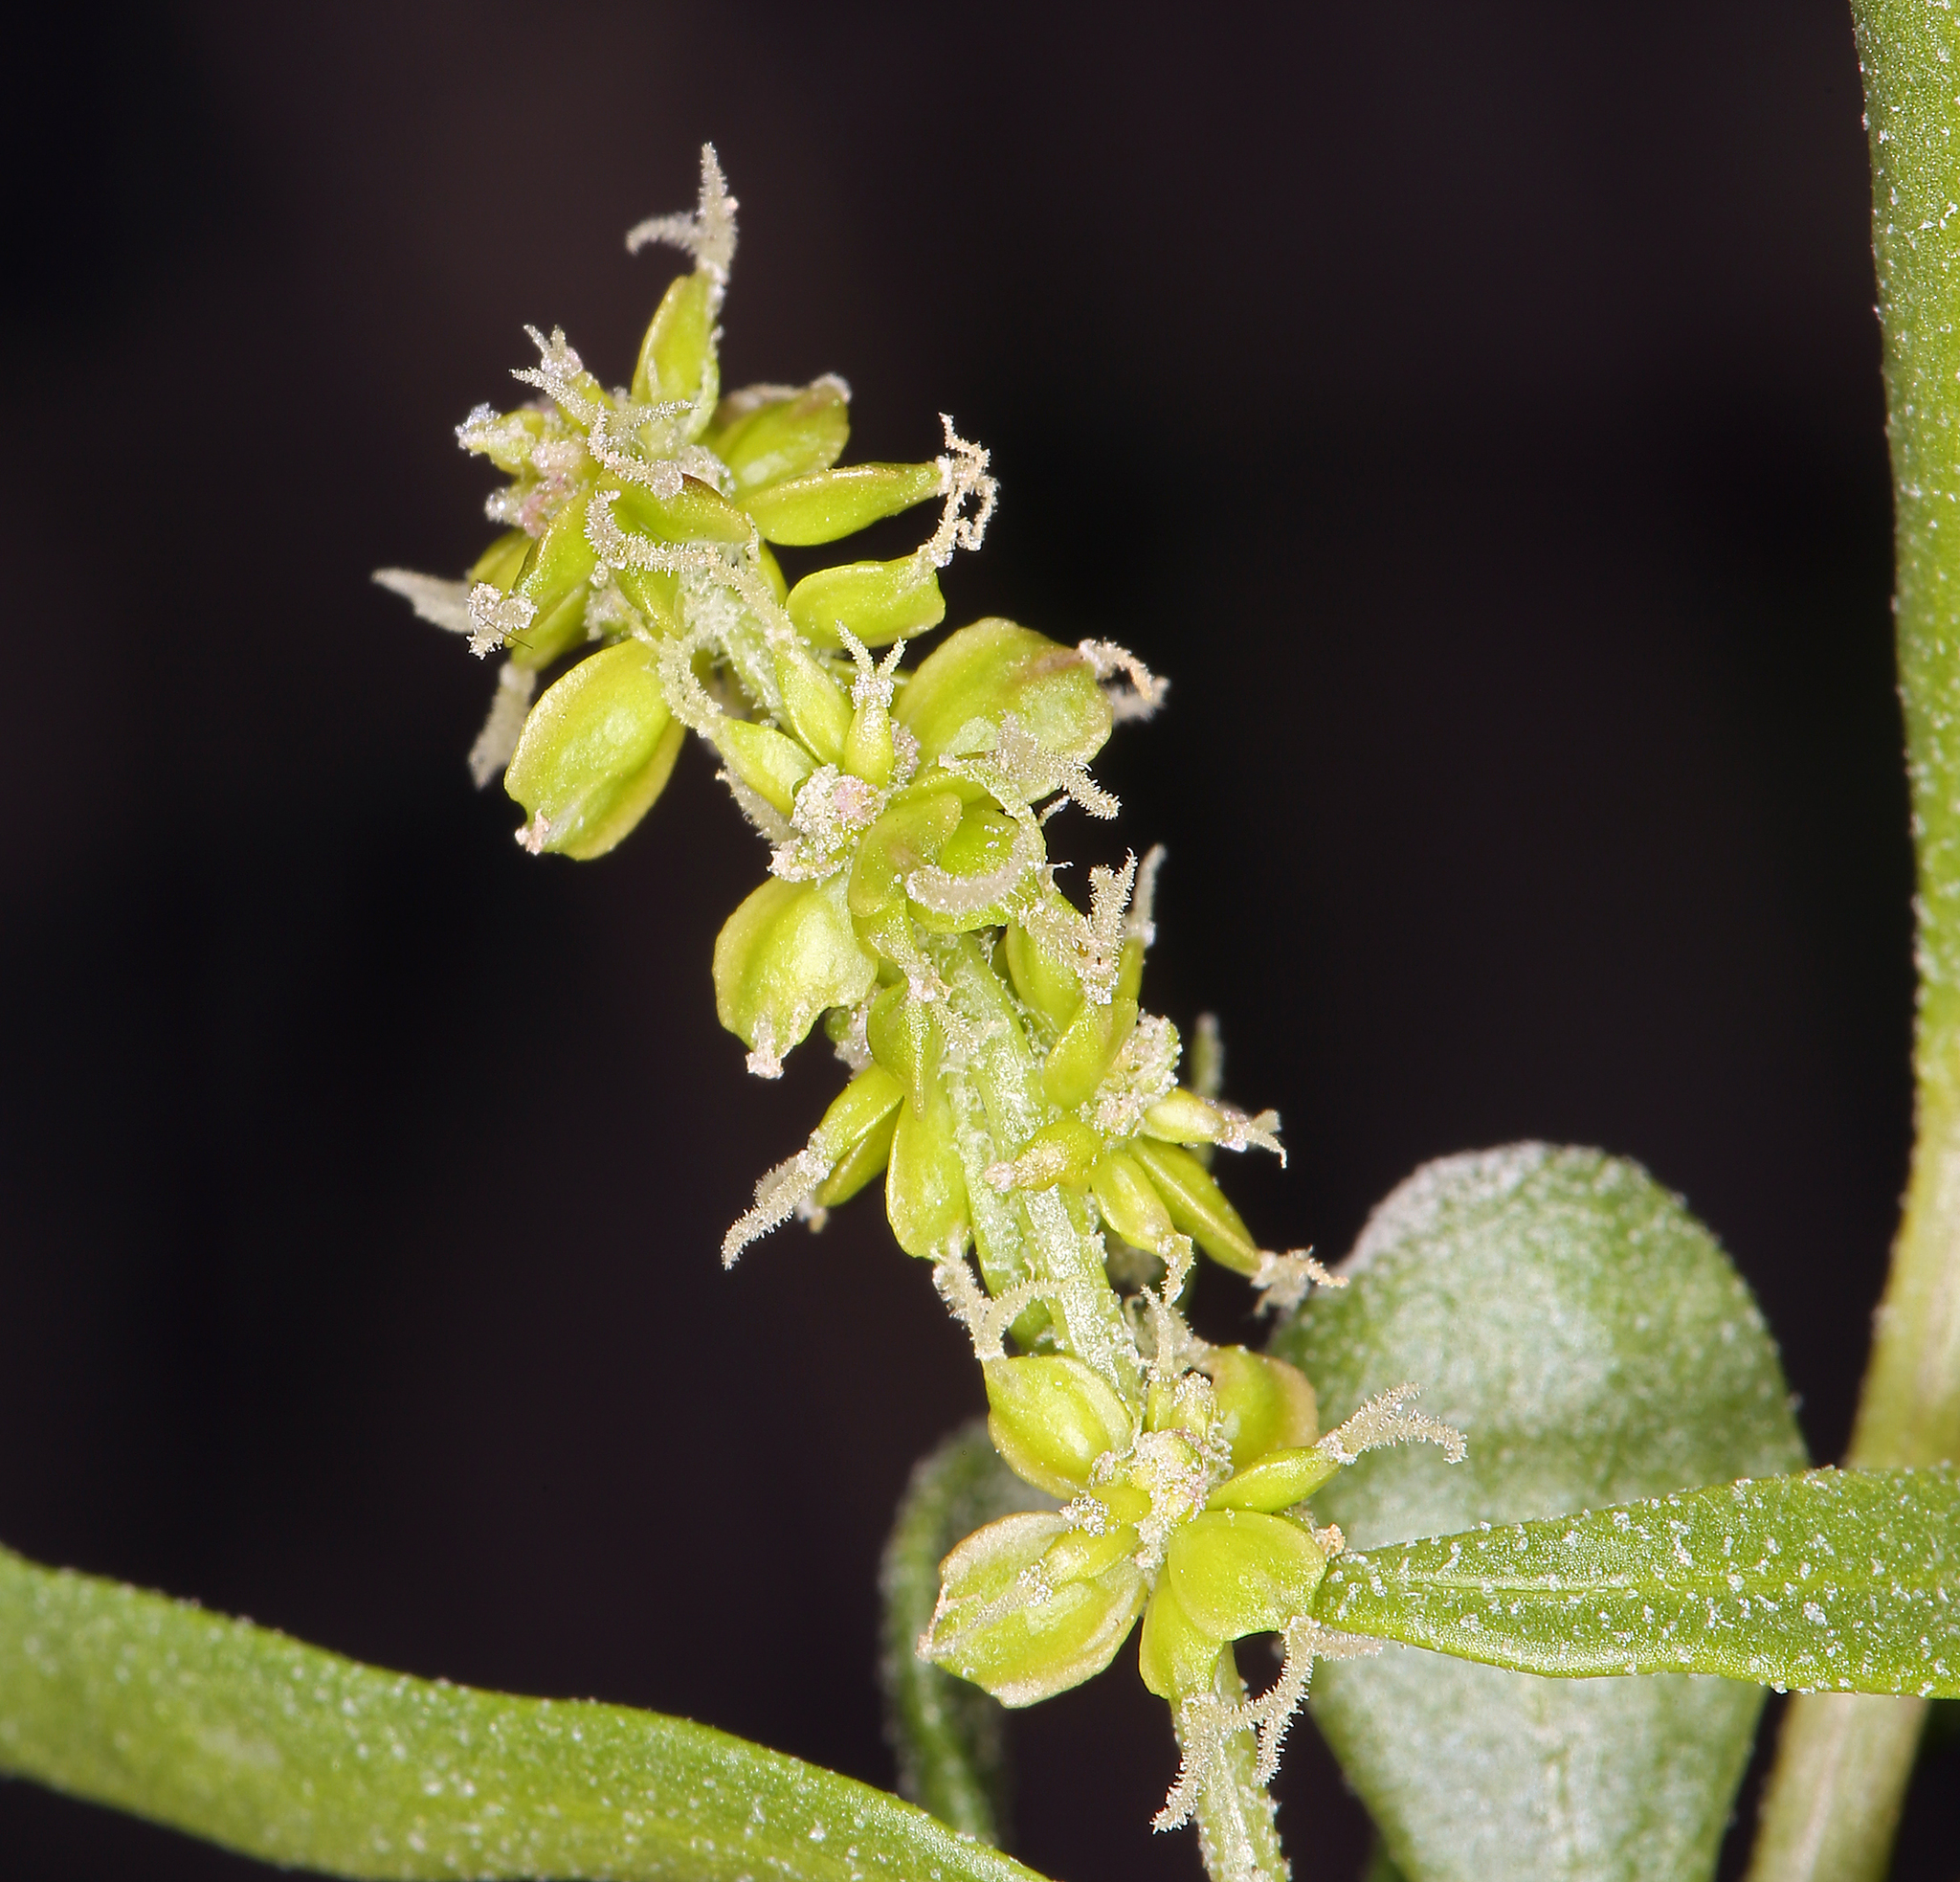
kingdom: Plantae
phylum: Tracheophyta
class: Magnoliopsida
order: Caryophyllales
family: Amaranthaceae
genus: Grayia
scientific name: Grayia spinosa
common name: Spiny hopsage
